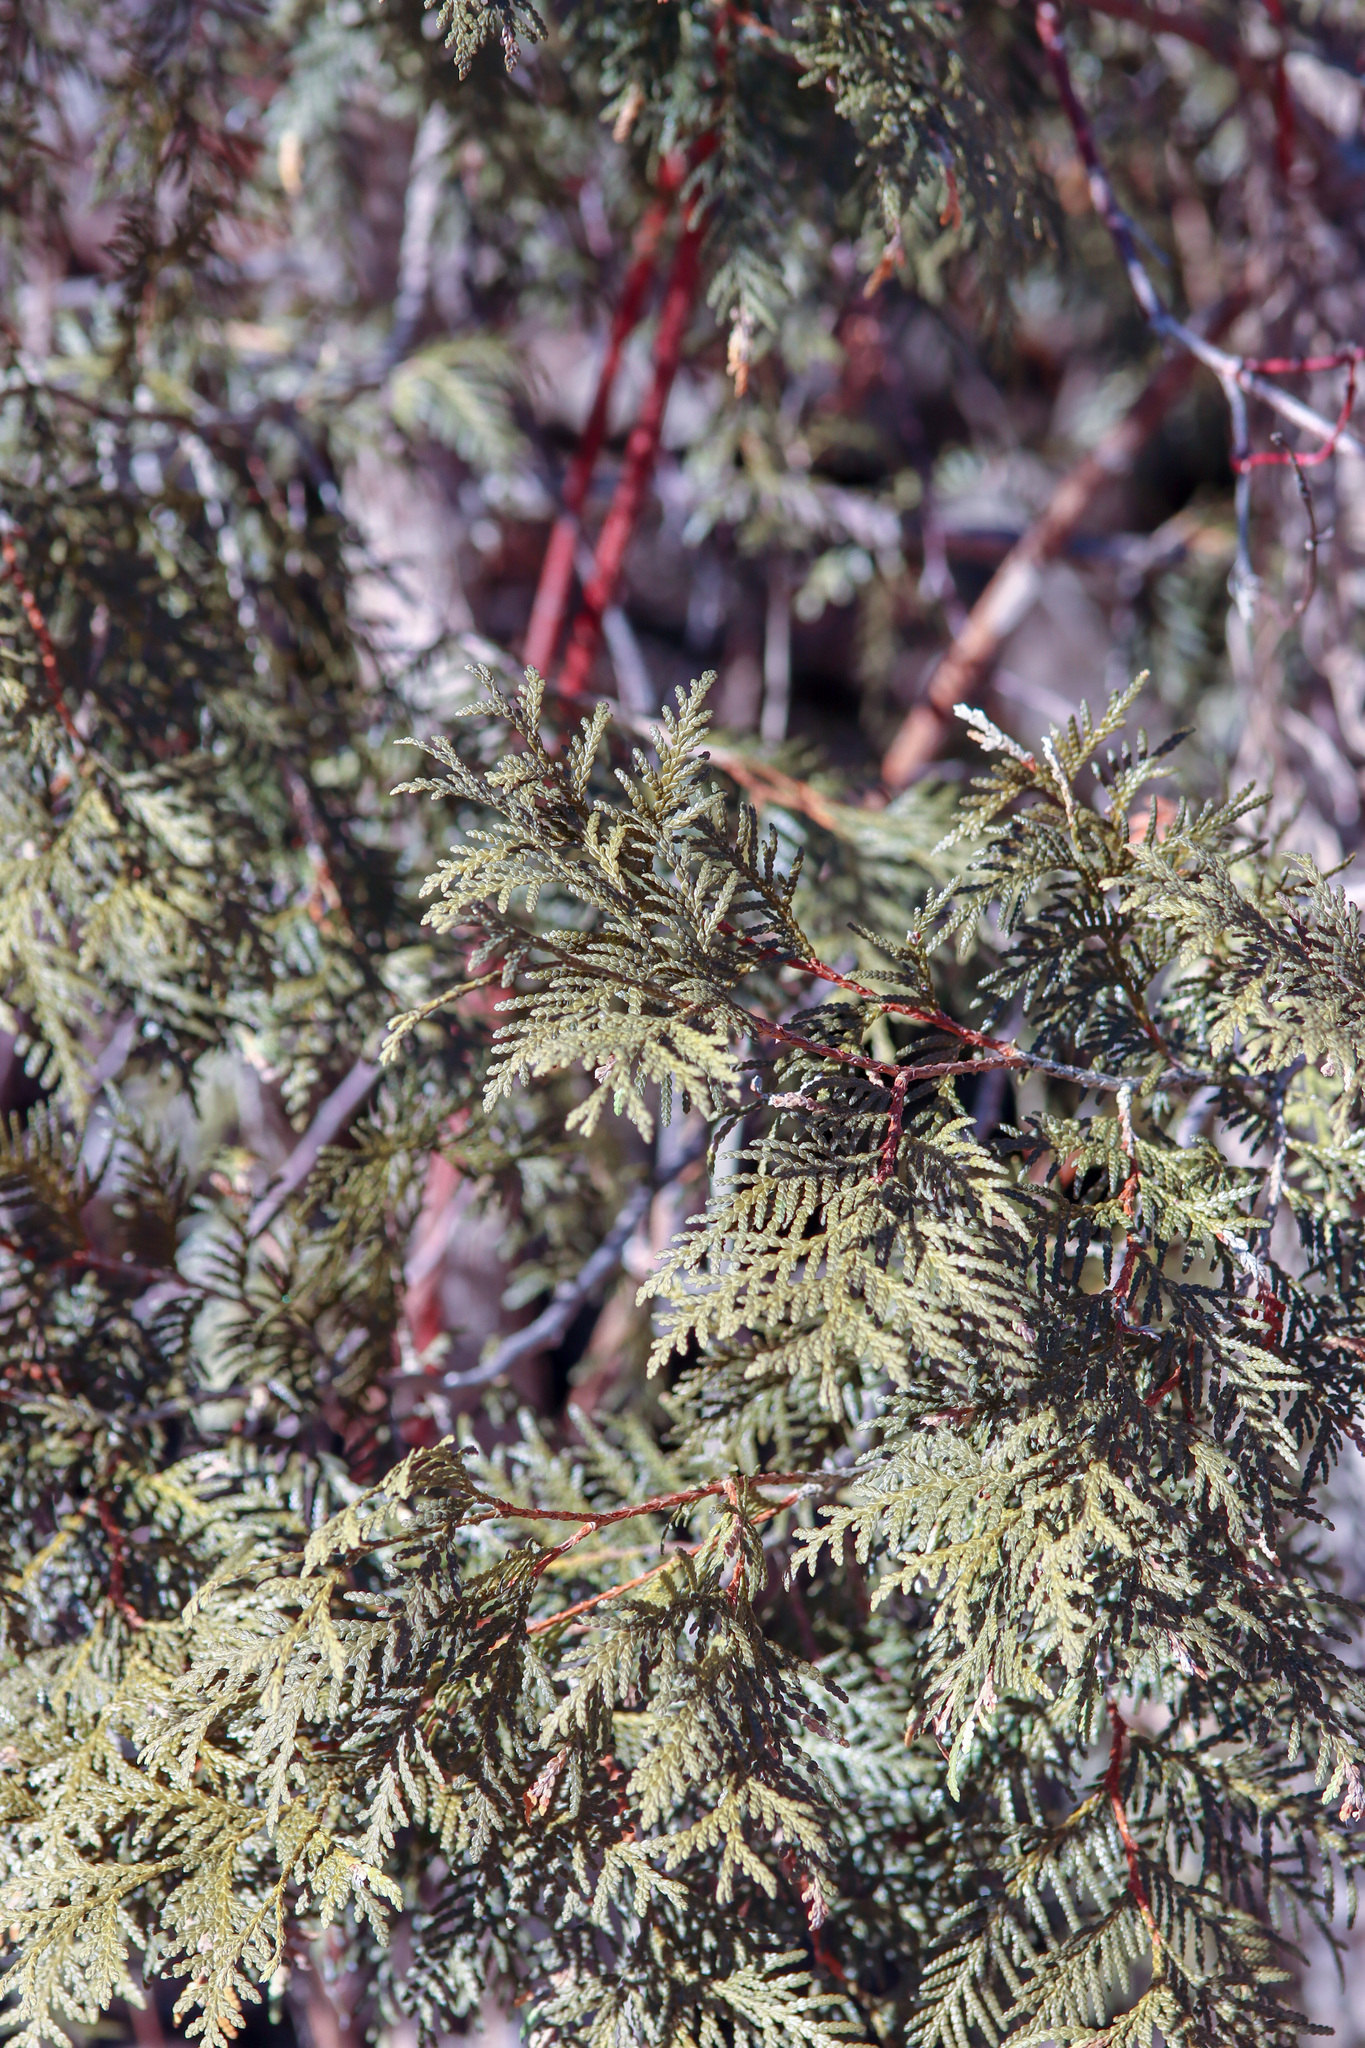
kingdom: Plantae
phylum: Tracheophyta
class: Pinopsida
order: Pinales
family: Cupressaceae
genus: Thuja
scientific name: Thuja occidentalis
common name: Northern white-cedar
